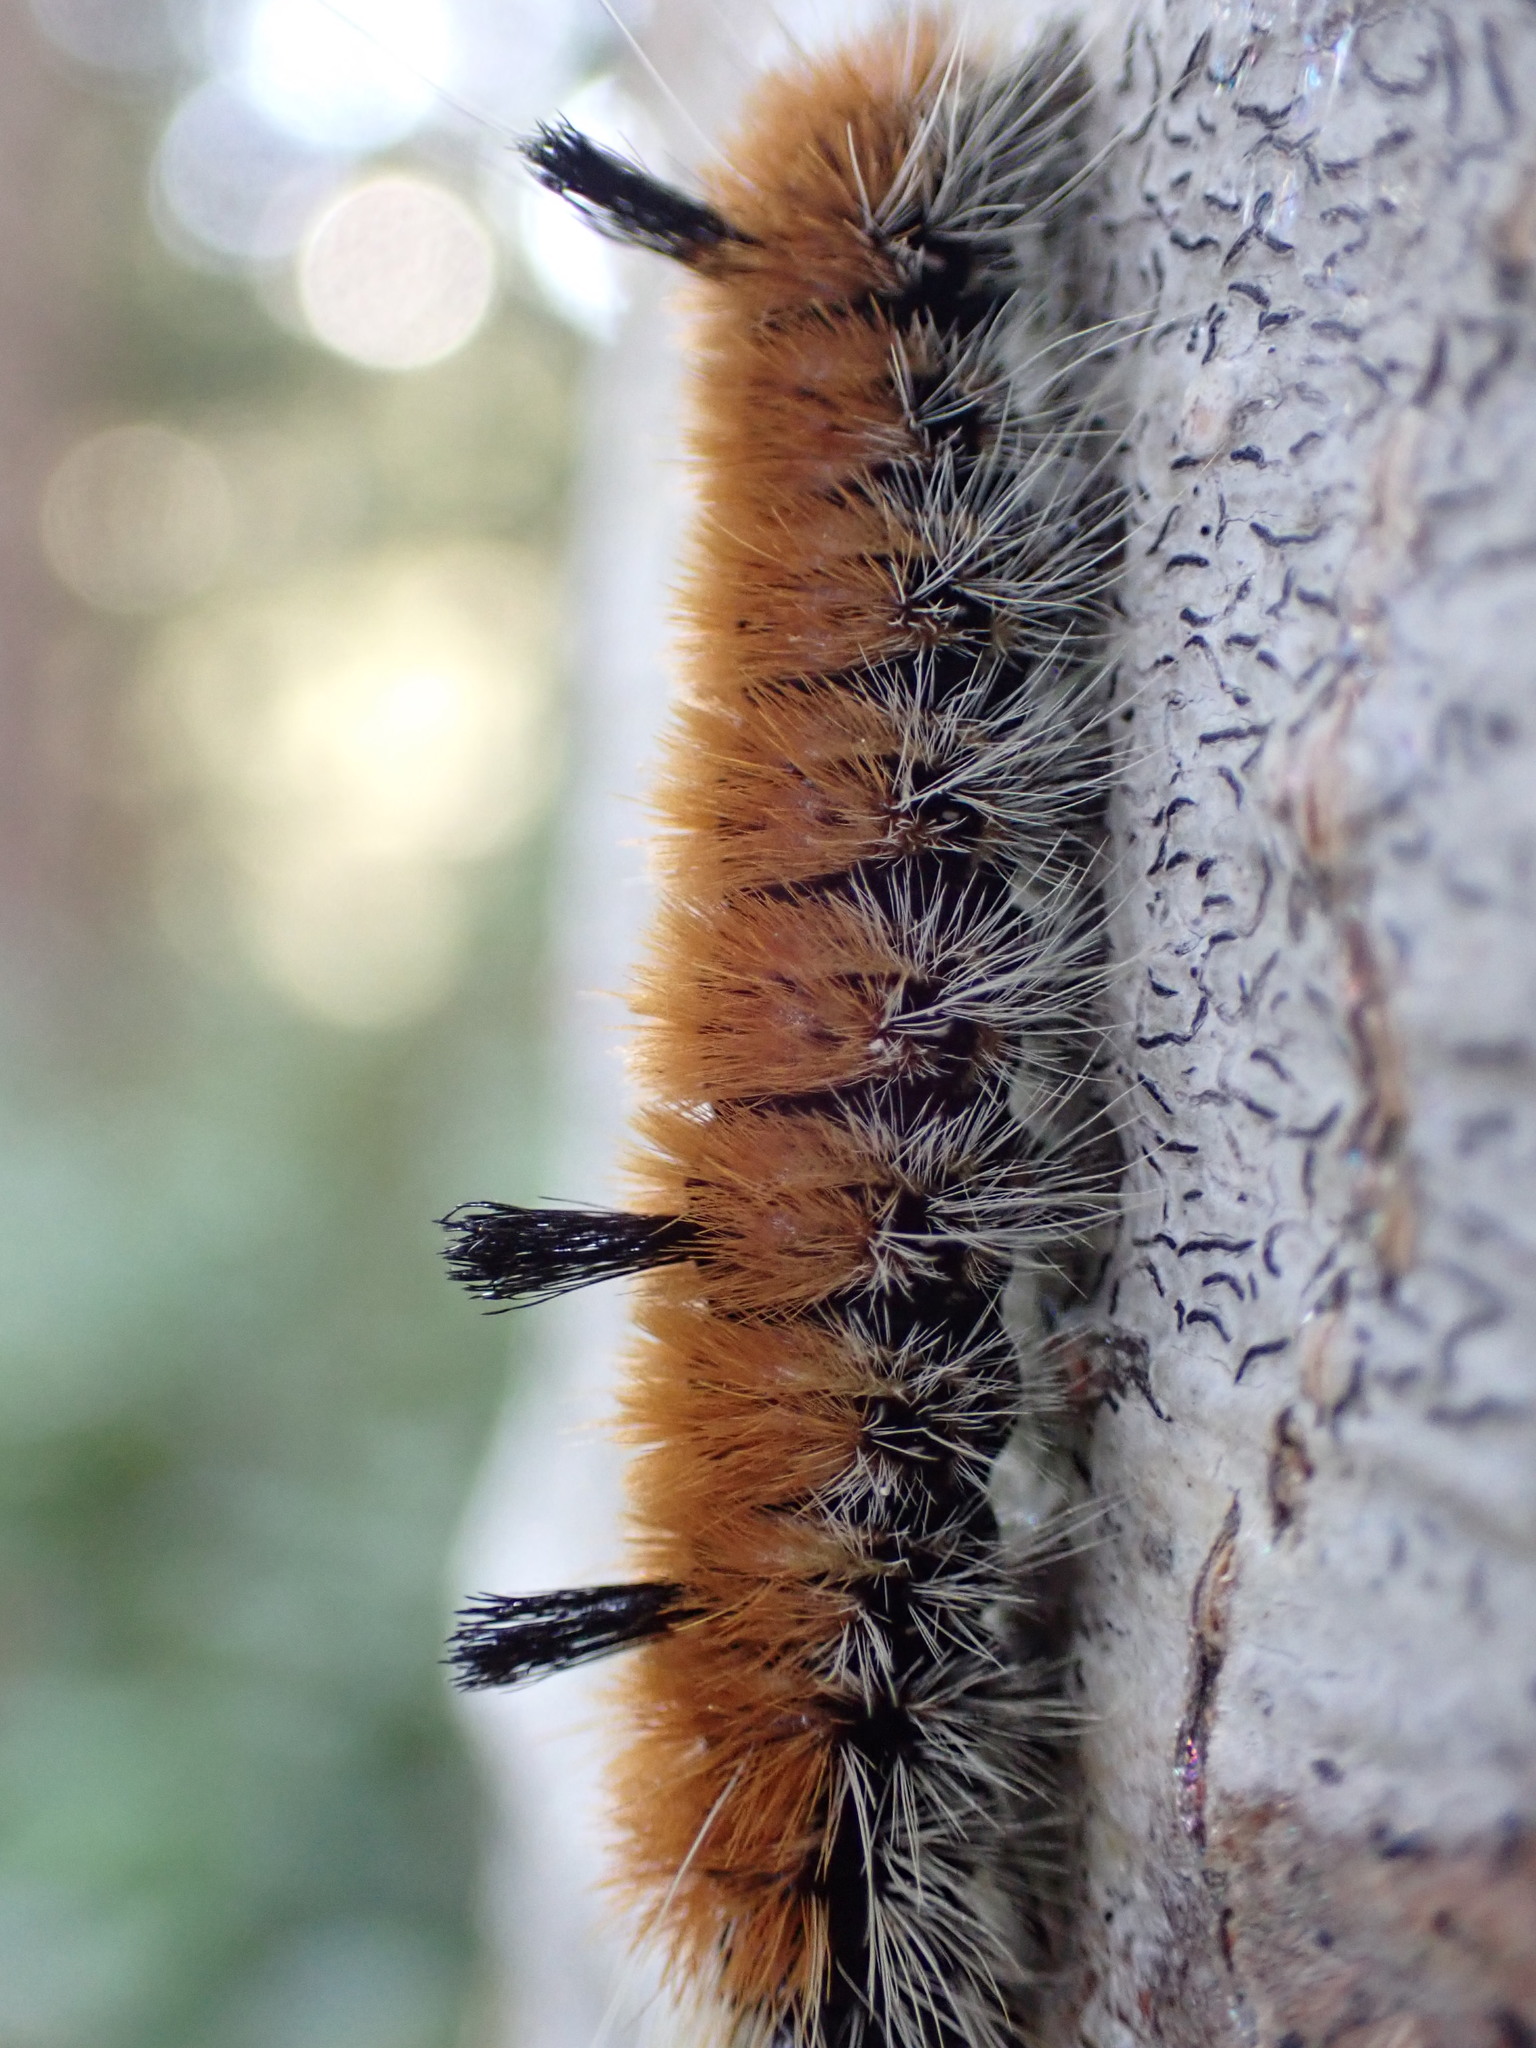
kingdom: Animalia
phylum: Arthropoda
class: Insecta
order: Lepidoptera
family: Noctuidae
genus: Acronicta
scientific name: Acronicta insita
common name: Large gray dagger
